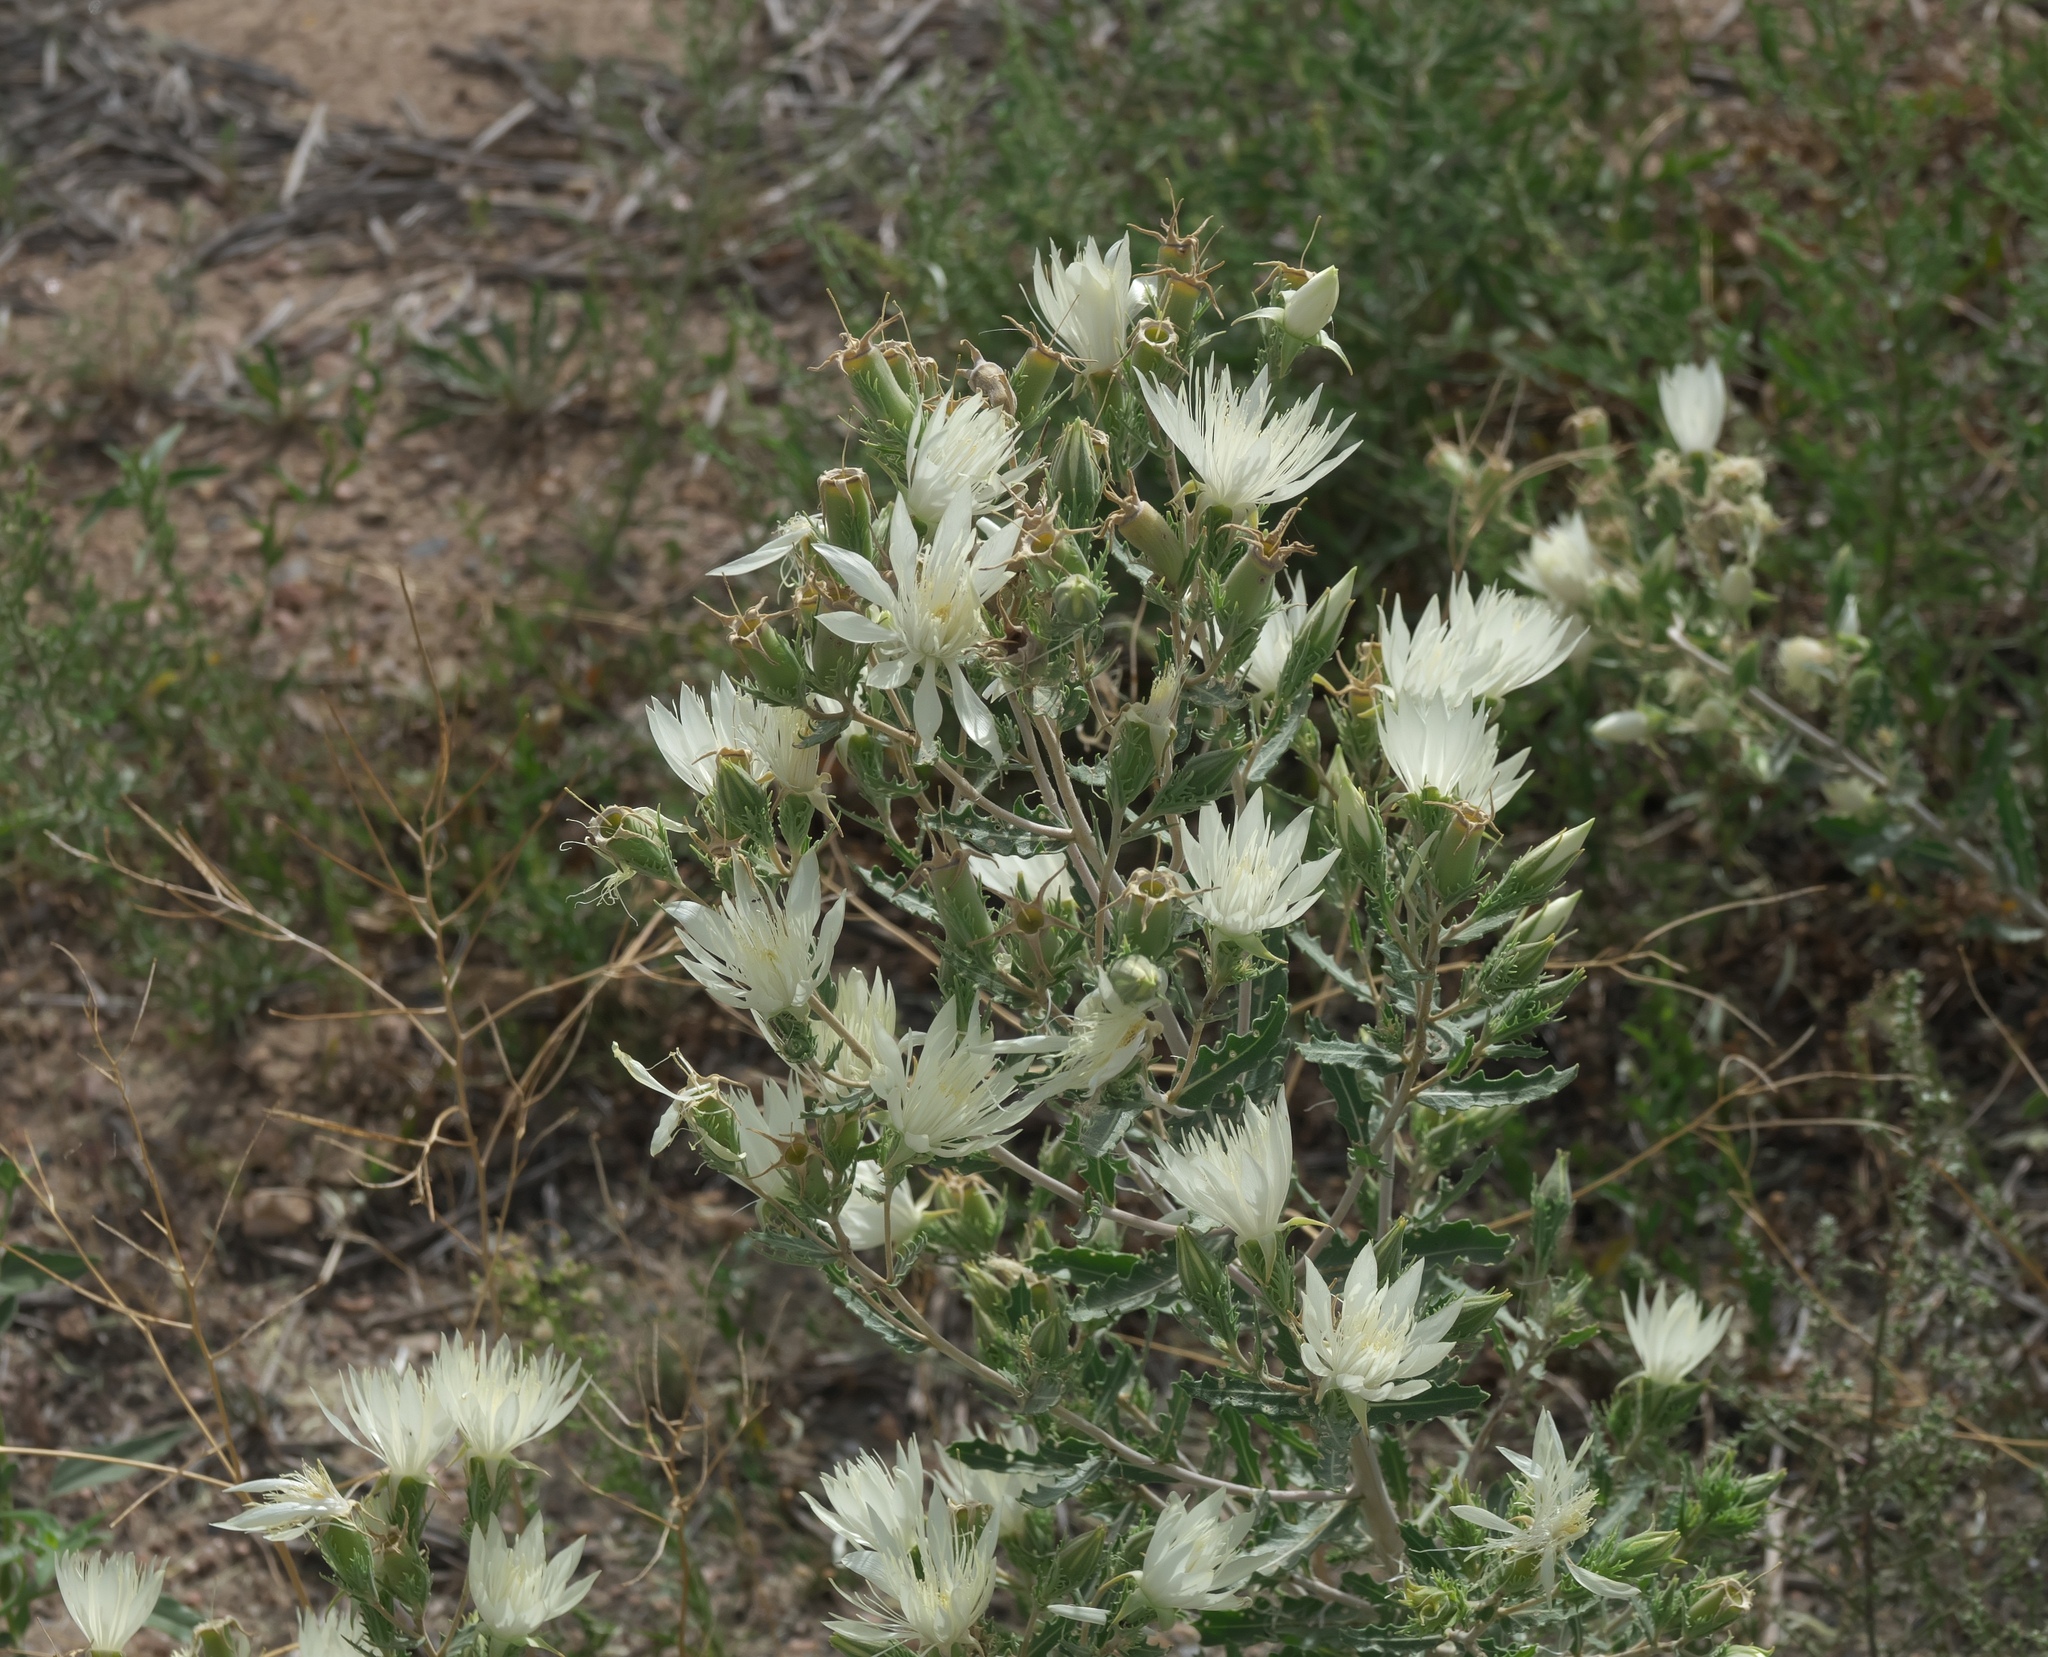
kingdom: Plantae
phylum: Tracheophyta
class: Magnoliopsida
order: Cornales
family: Loasaceae
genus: Mentzelia
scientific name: Mentzelia nuda
